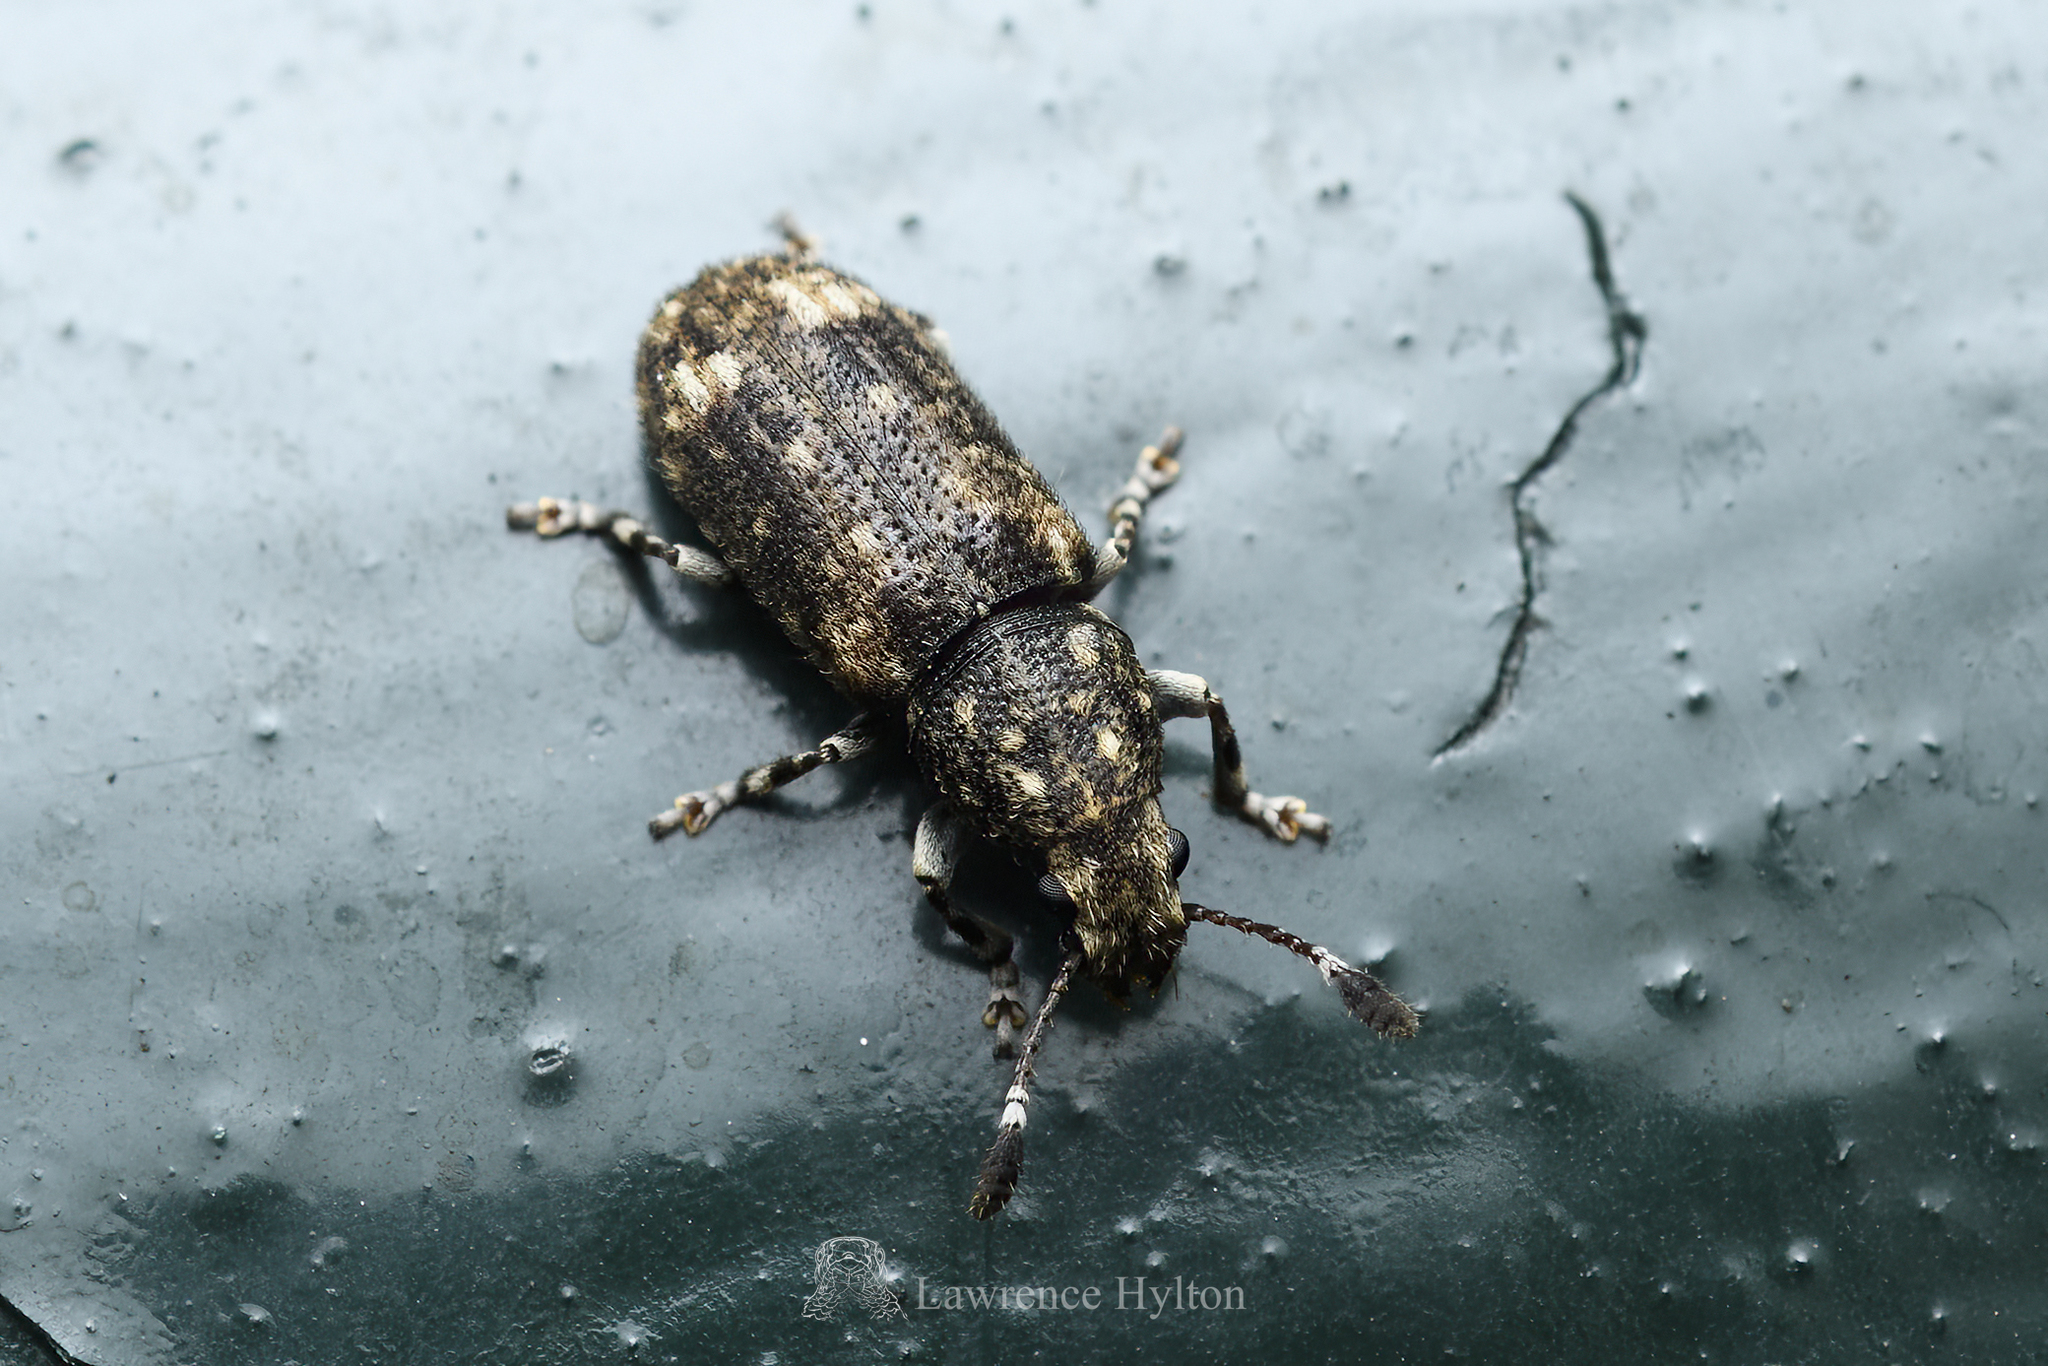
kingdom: Animalia
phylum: Arthropoda
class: Insecta
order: Coleoptera
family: Anthribidae
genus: Eucorynus
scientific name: Eucorynus crassicornis
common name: Fungus weevil
